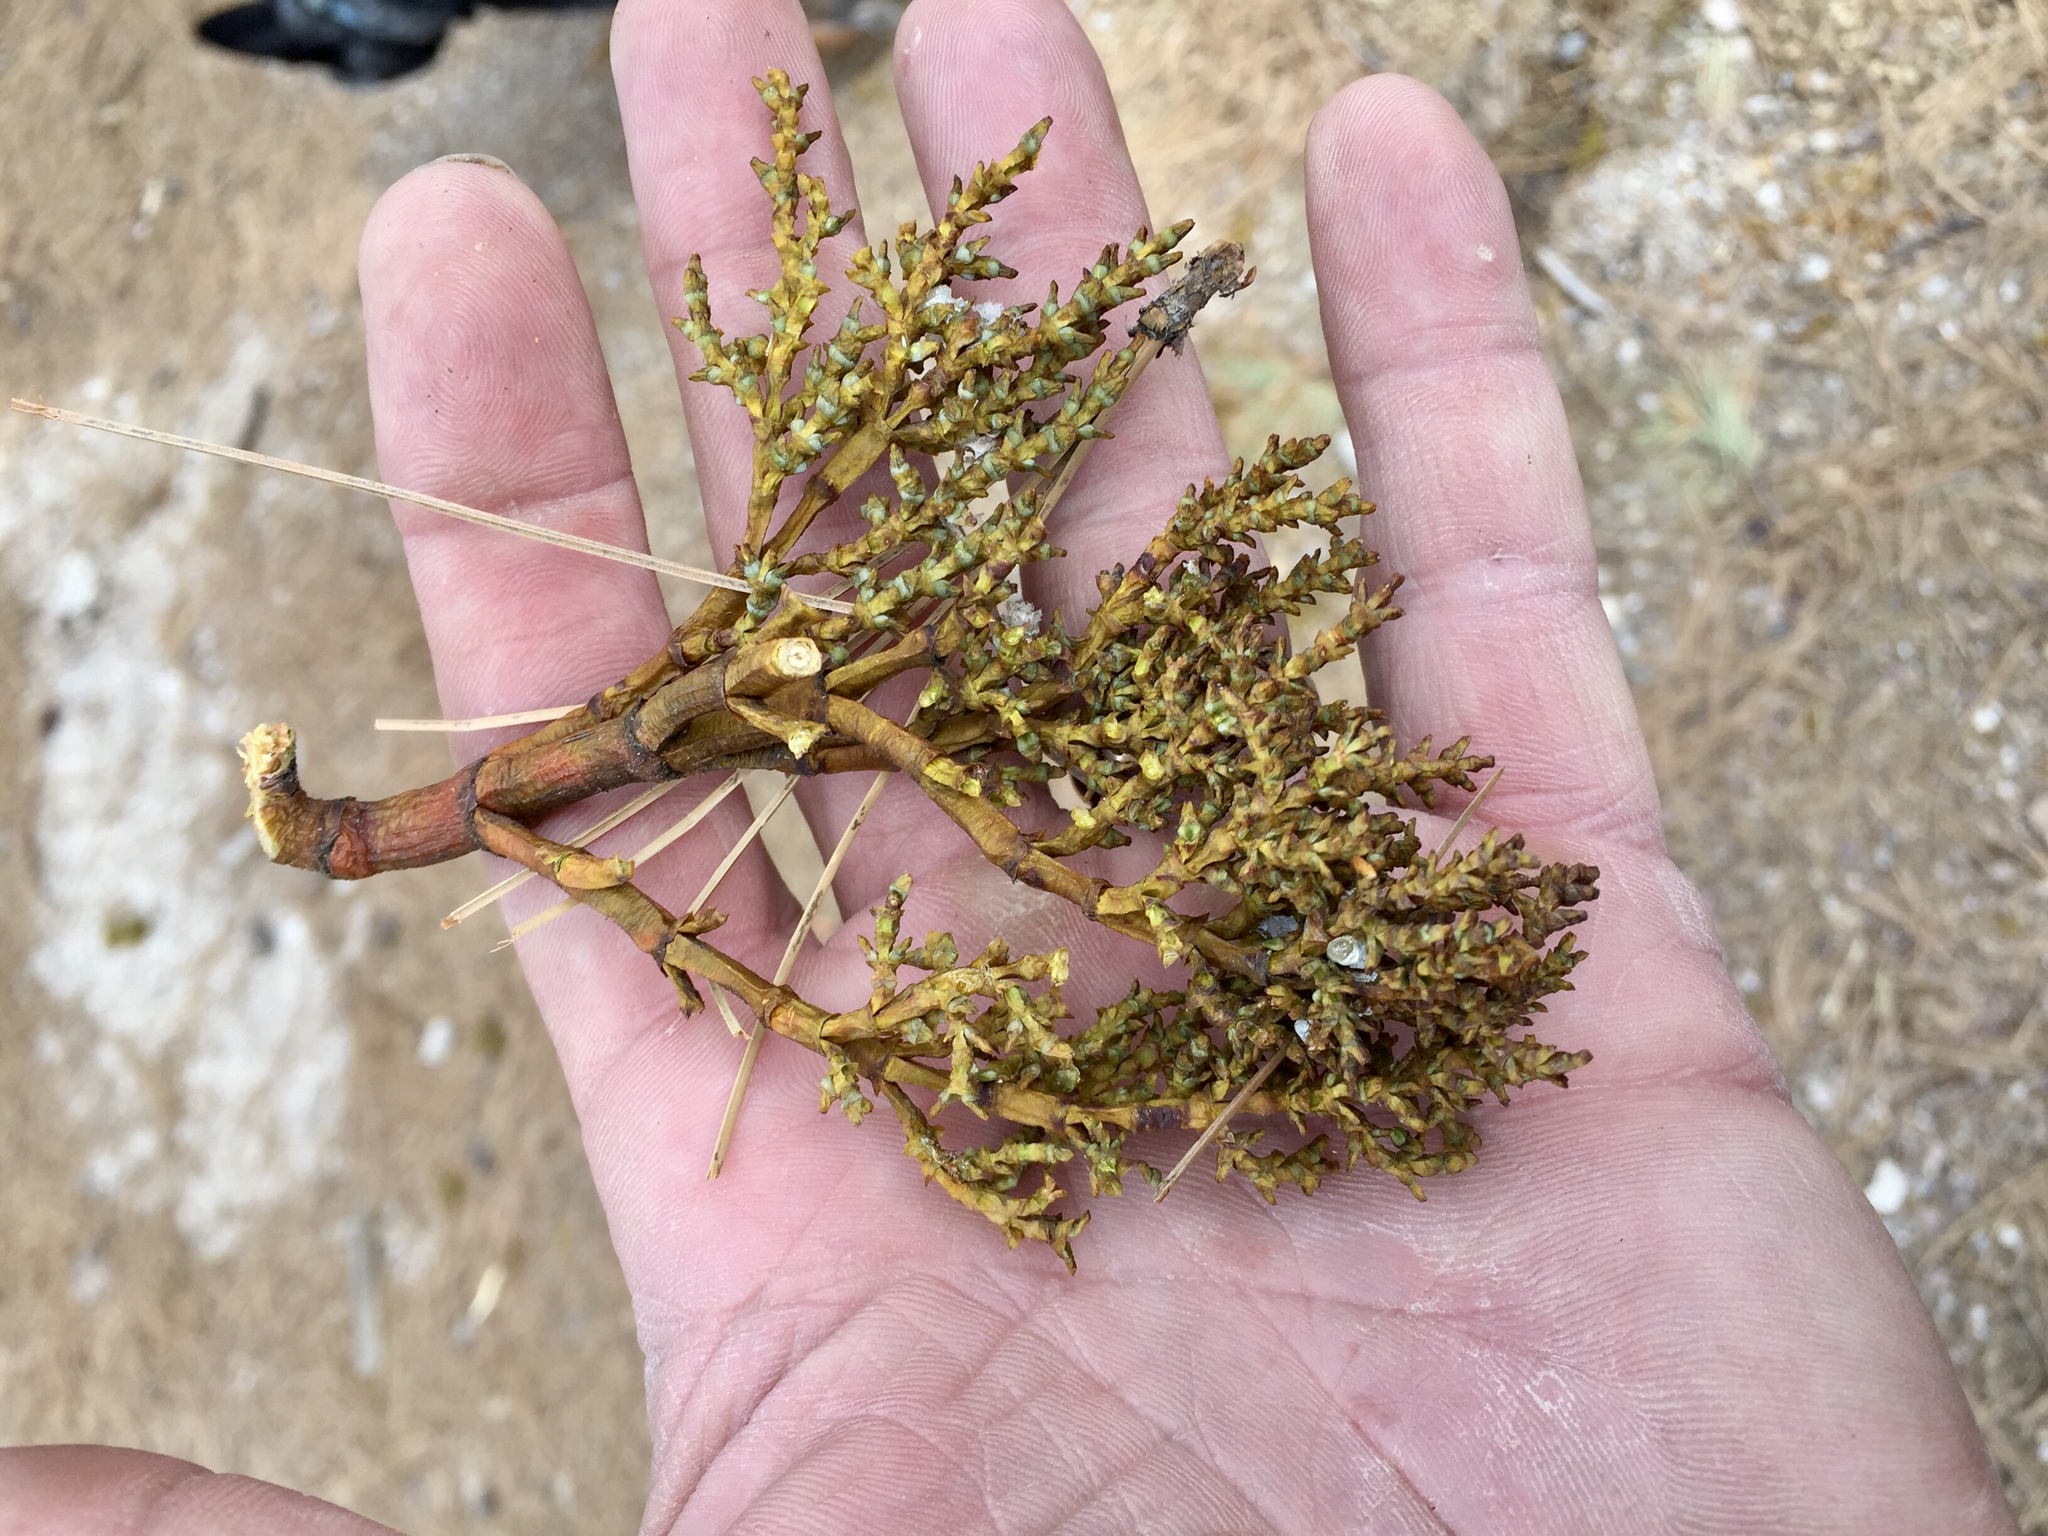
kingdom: Plantae
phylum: Tracheophyta
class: Magnoliopsida
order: Santalales
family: Viscaceae
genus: Arceuthobium
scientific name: Arceuthobium vaginatum
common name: Southwestern dwarf-mistletoe
